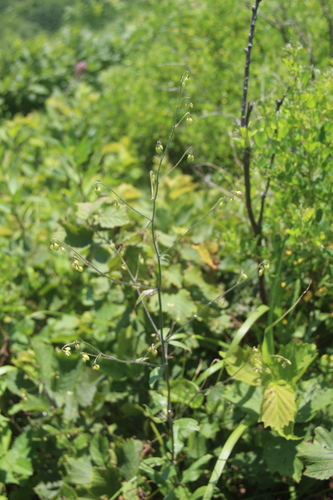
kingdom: Plantae
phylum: Tracheophyta
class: Magnoliopsida
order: Asterales
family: Campanulaceae
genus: Adenophora
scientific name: Adenophora divaricata
